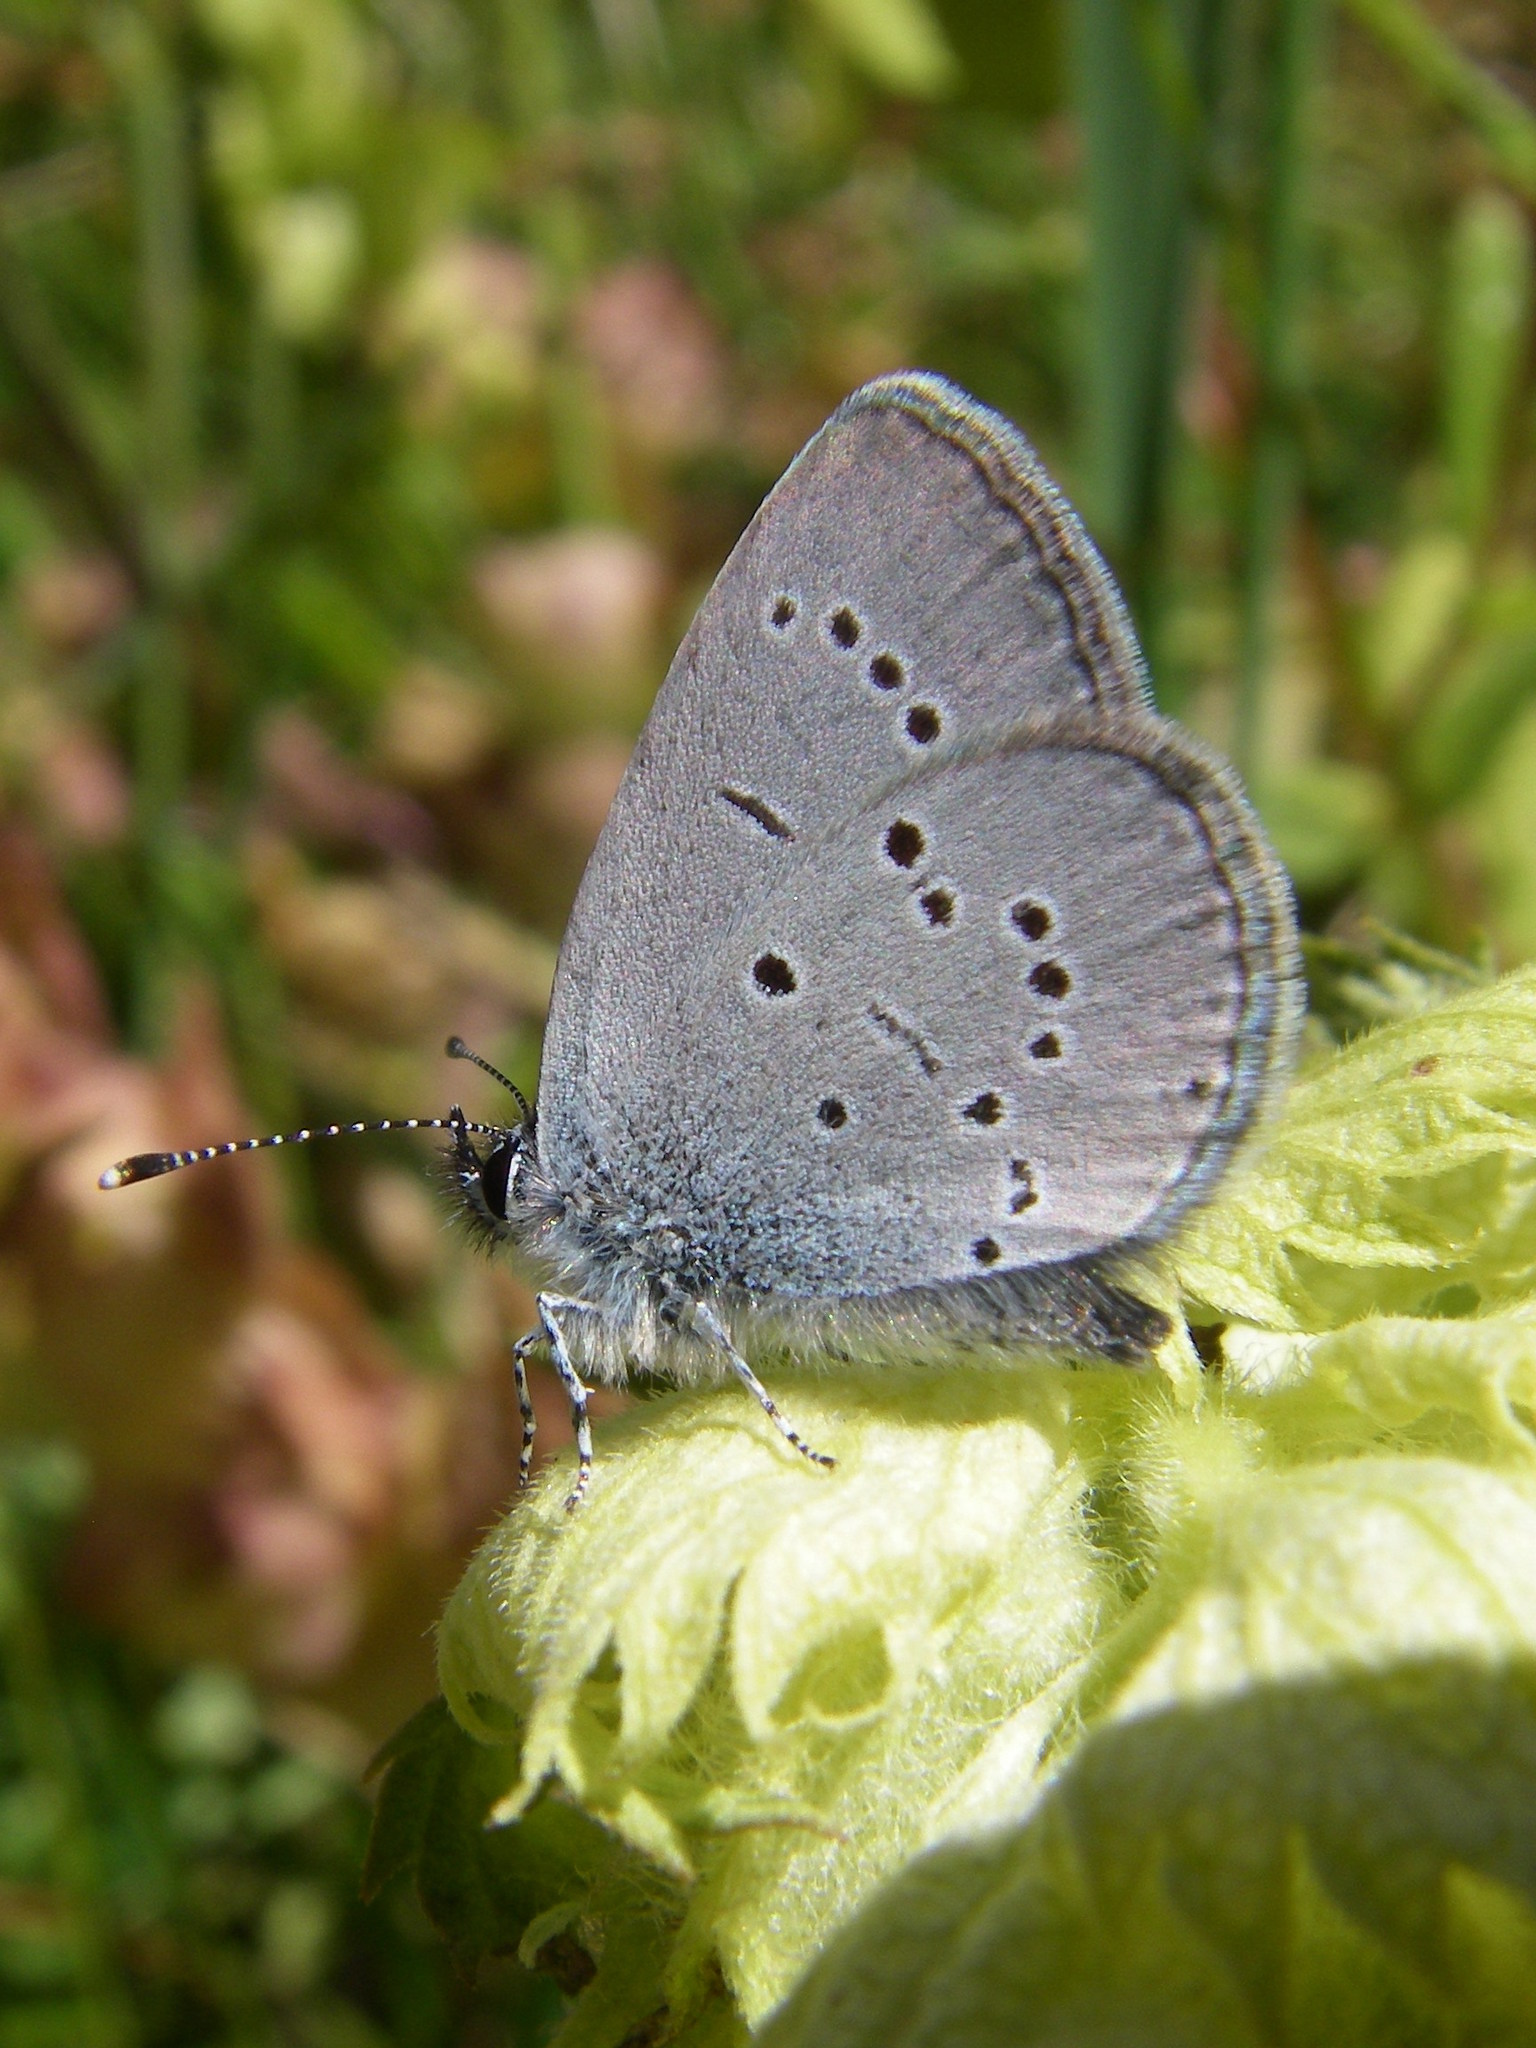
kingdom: Animalia
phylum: Arthropoda
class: Insecta
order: Lepidoptera
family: Lycaenidae
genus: Cupido
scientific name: Cupido minimus
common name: Small blue
